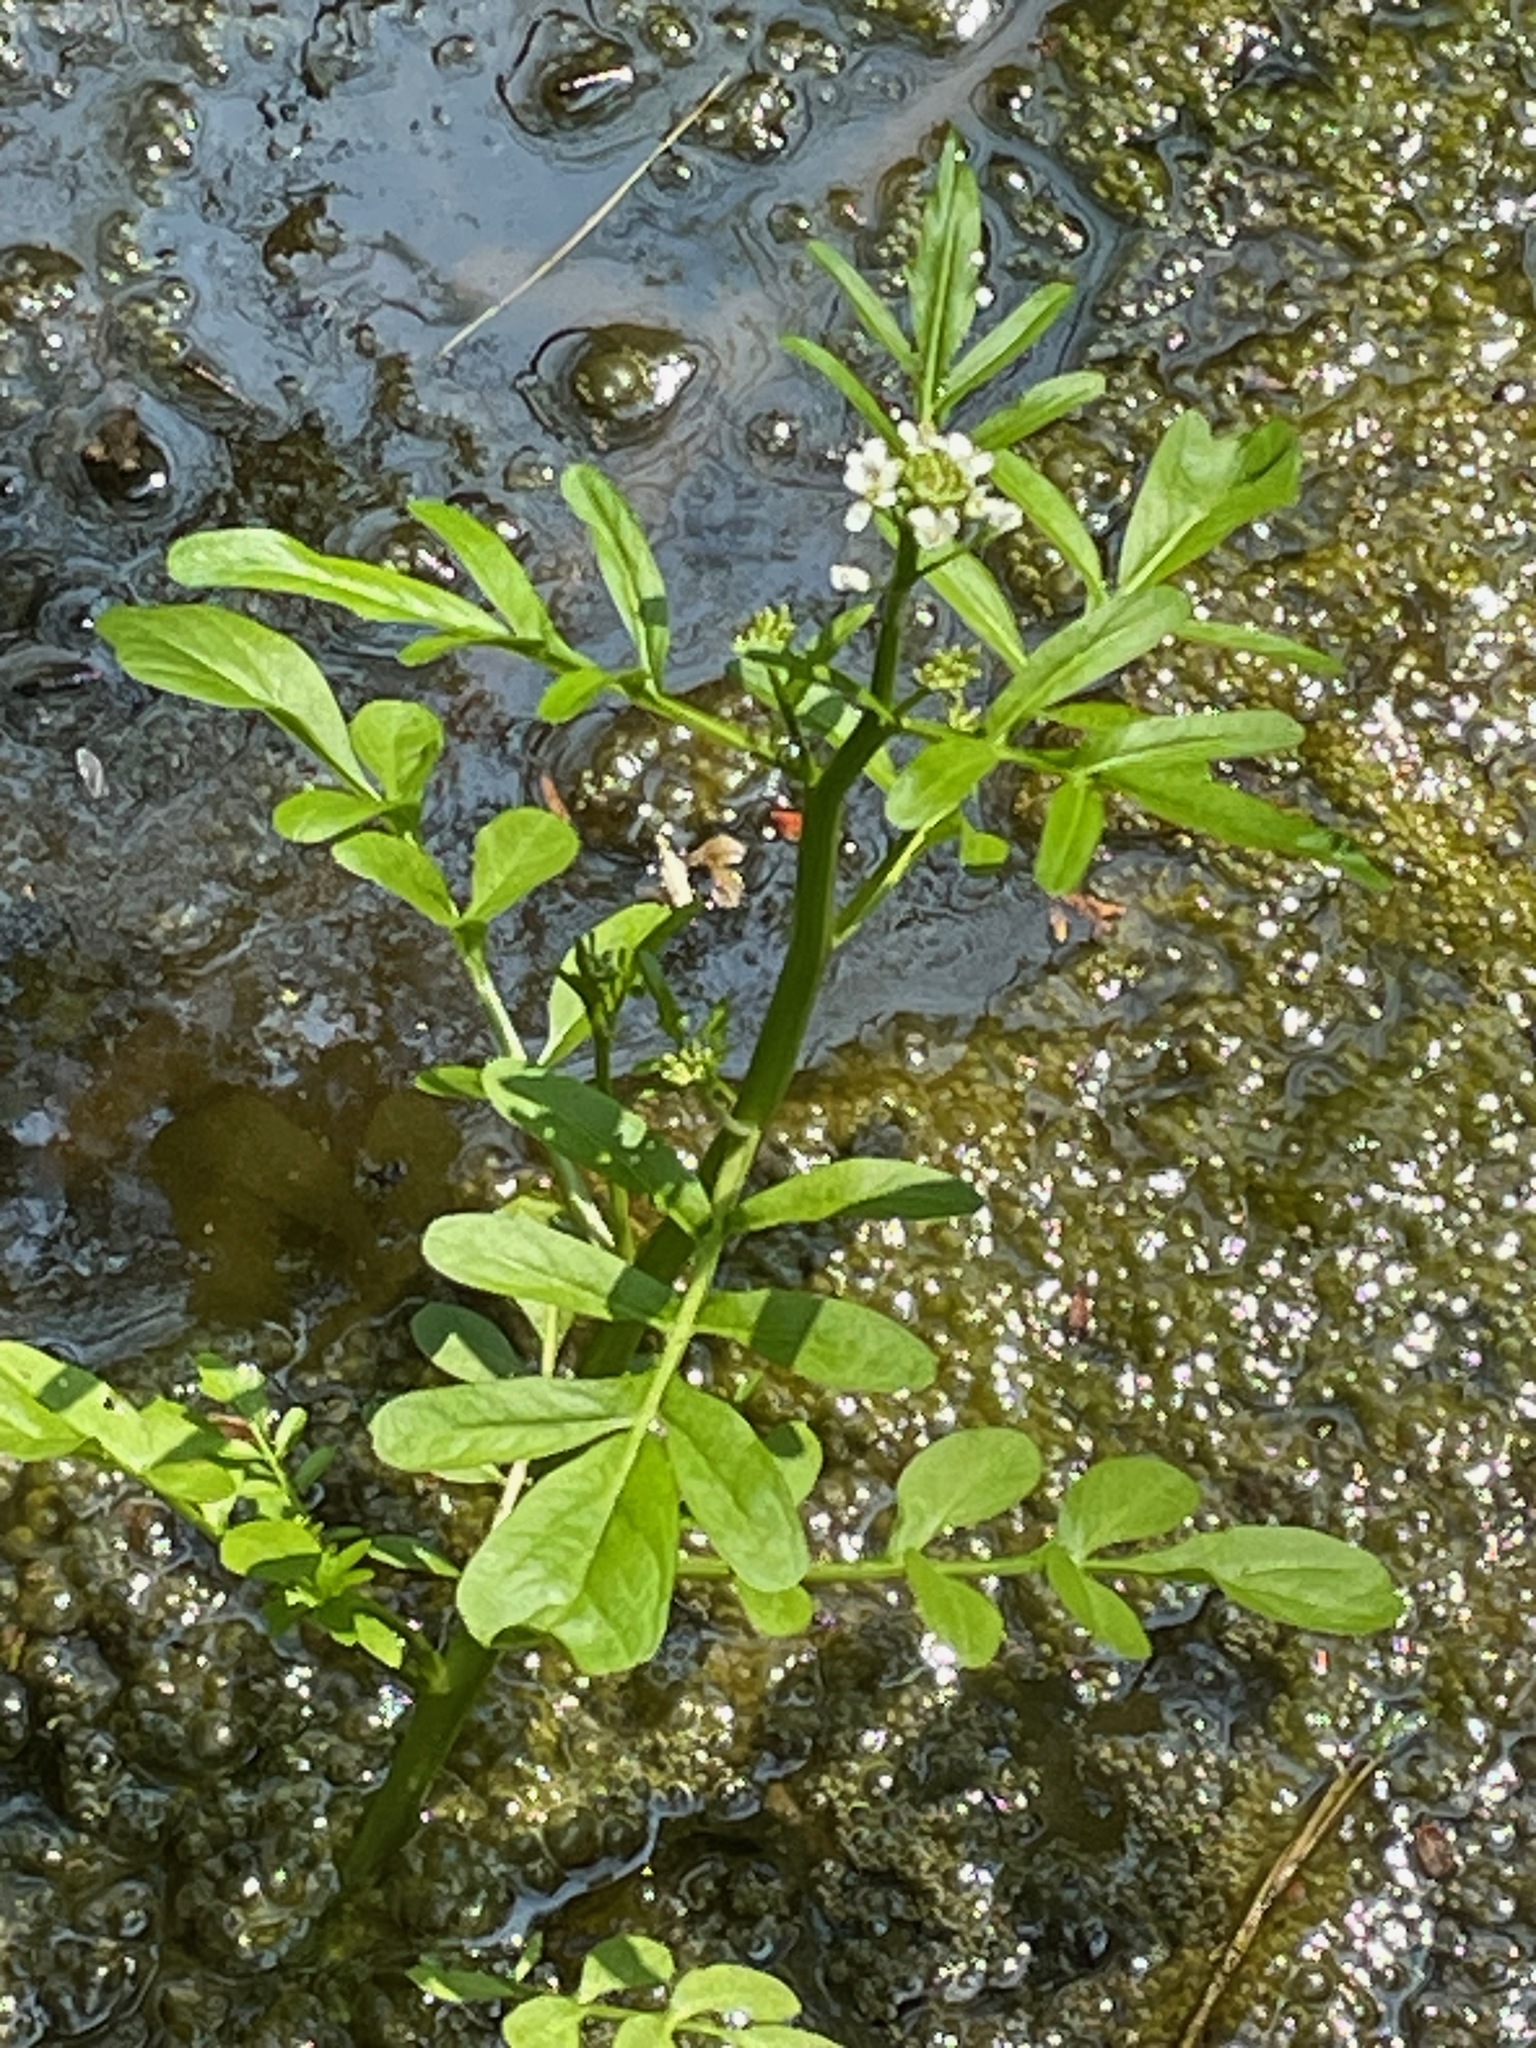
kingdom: Plantae
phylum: Tracheophyta
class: Magnoliopsida
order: Brassicales
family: Brassicaceae
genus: Cardamine
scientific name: Cardamine pensylvanica
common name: Pennsylvania bittercress
